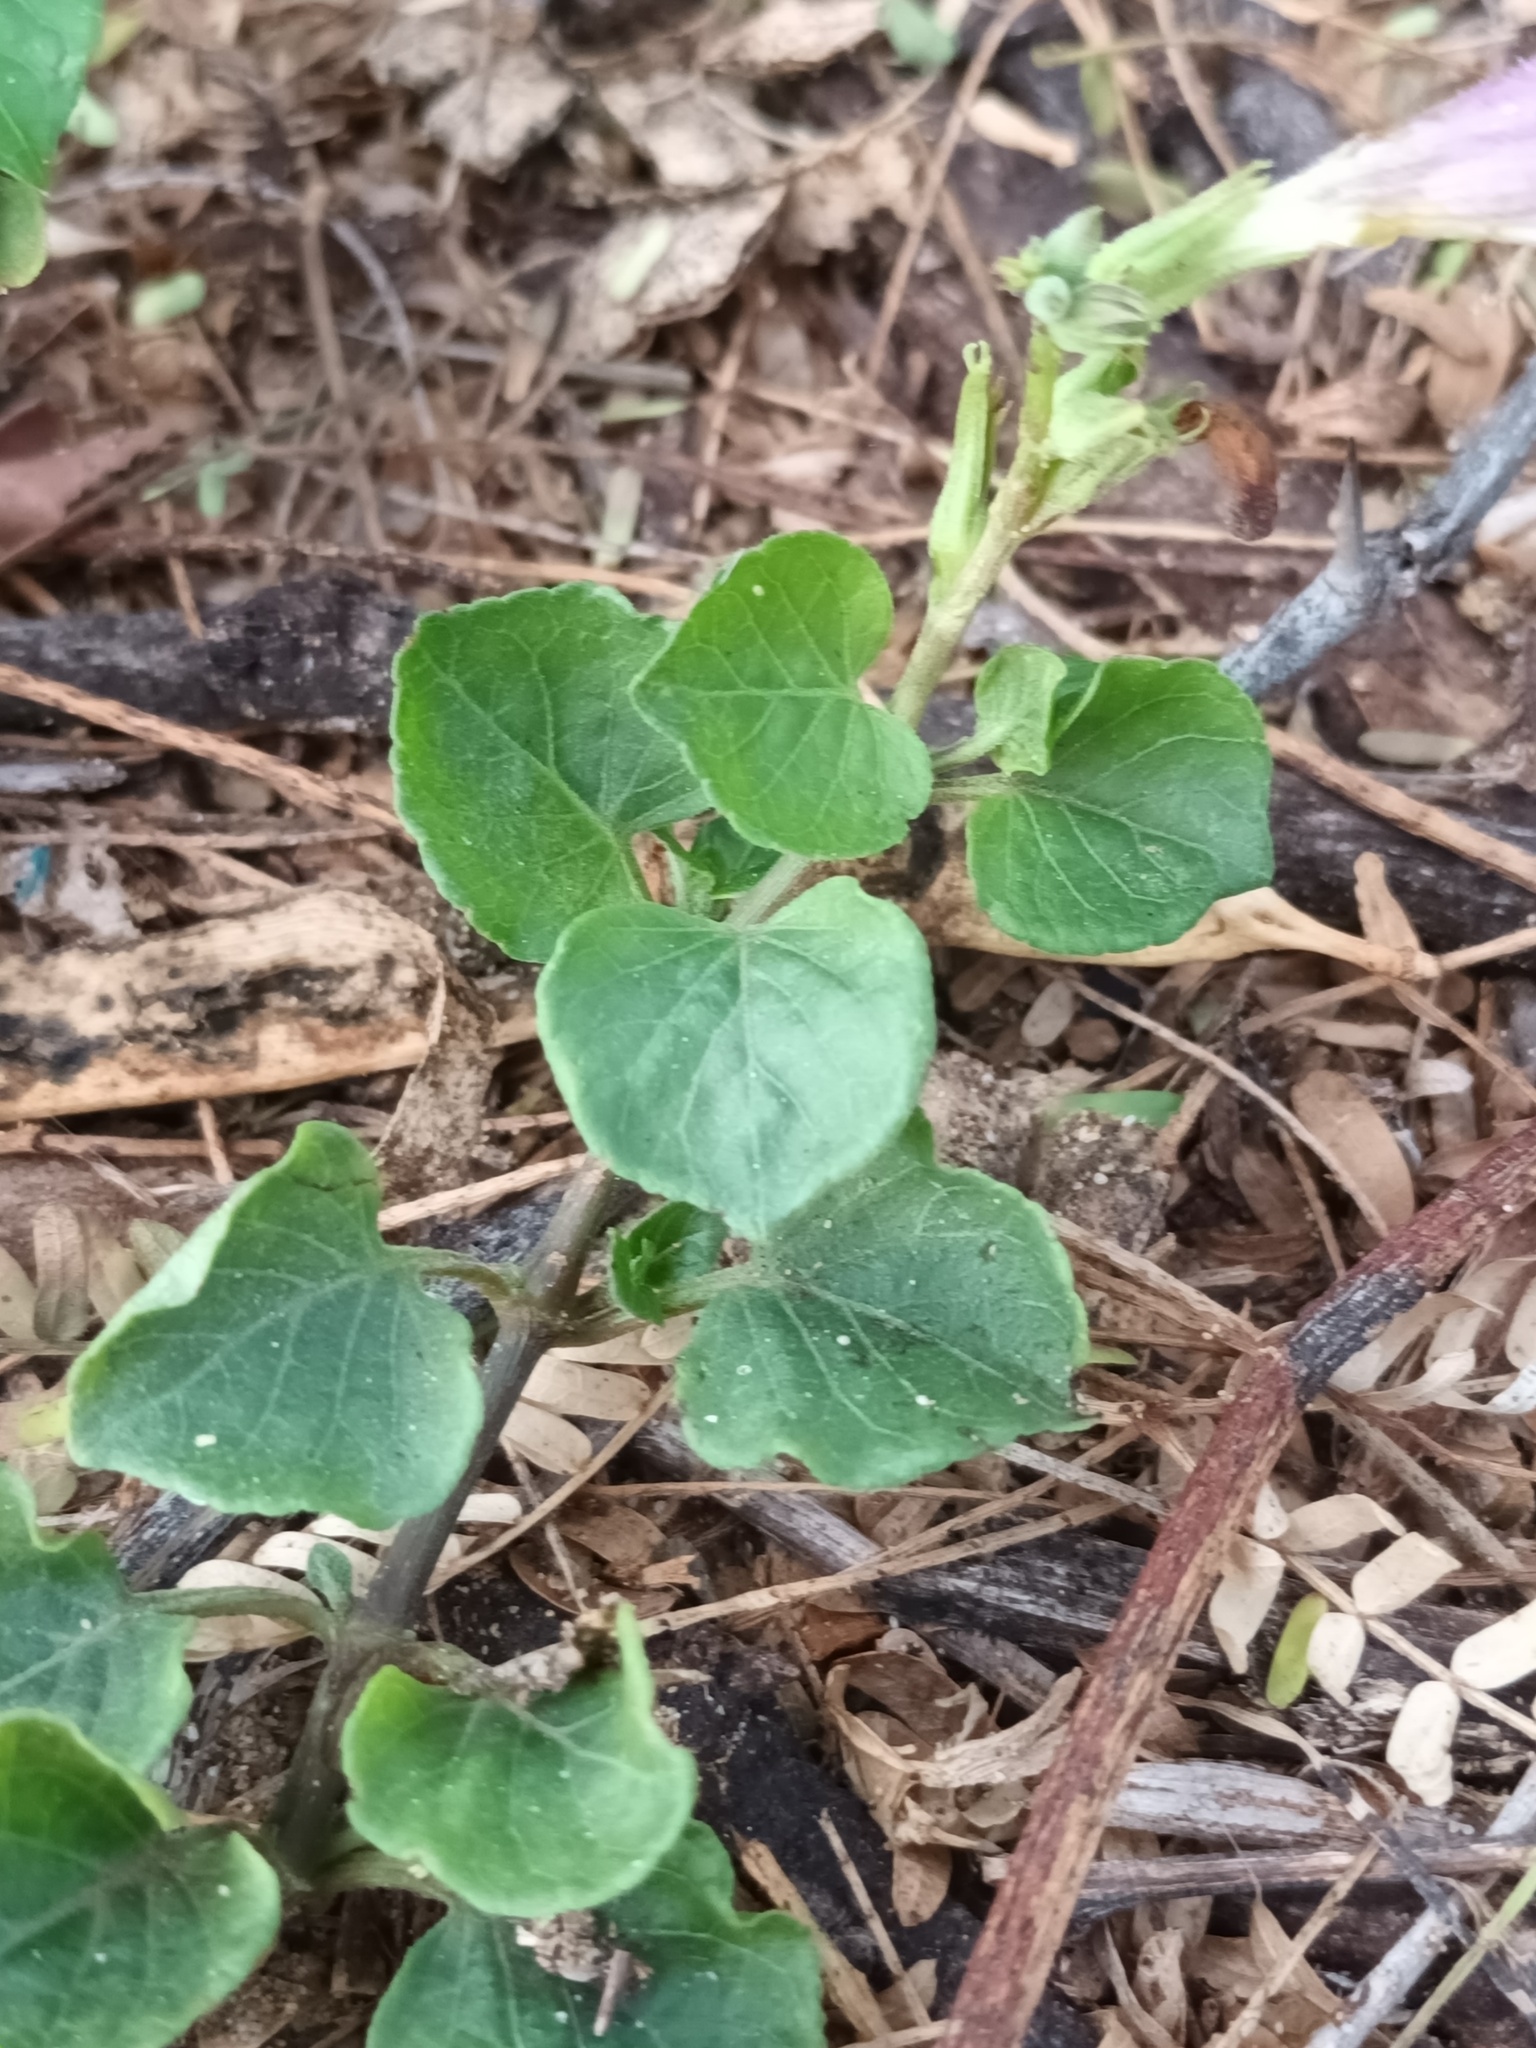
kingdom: Plantae
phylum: Tracheophyta
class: Magnoliopsida
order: Lamiales
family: Acanthaceae
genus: Asystasia
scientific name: Asystasia gangetica
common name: Chinese violet
